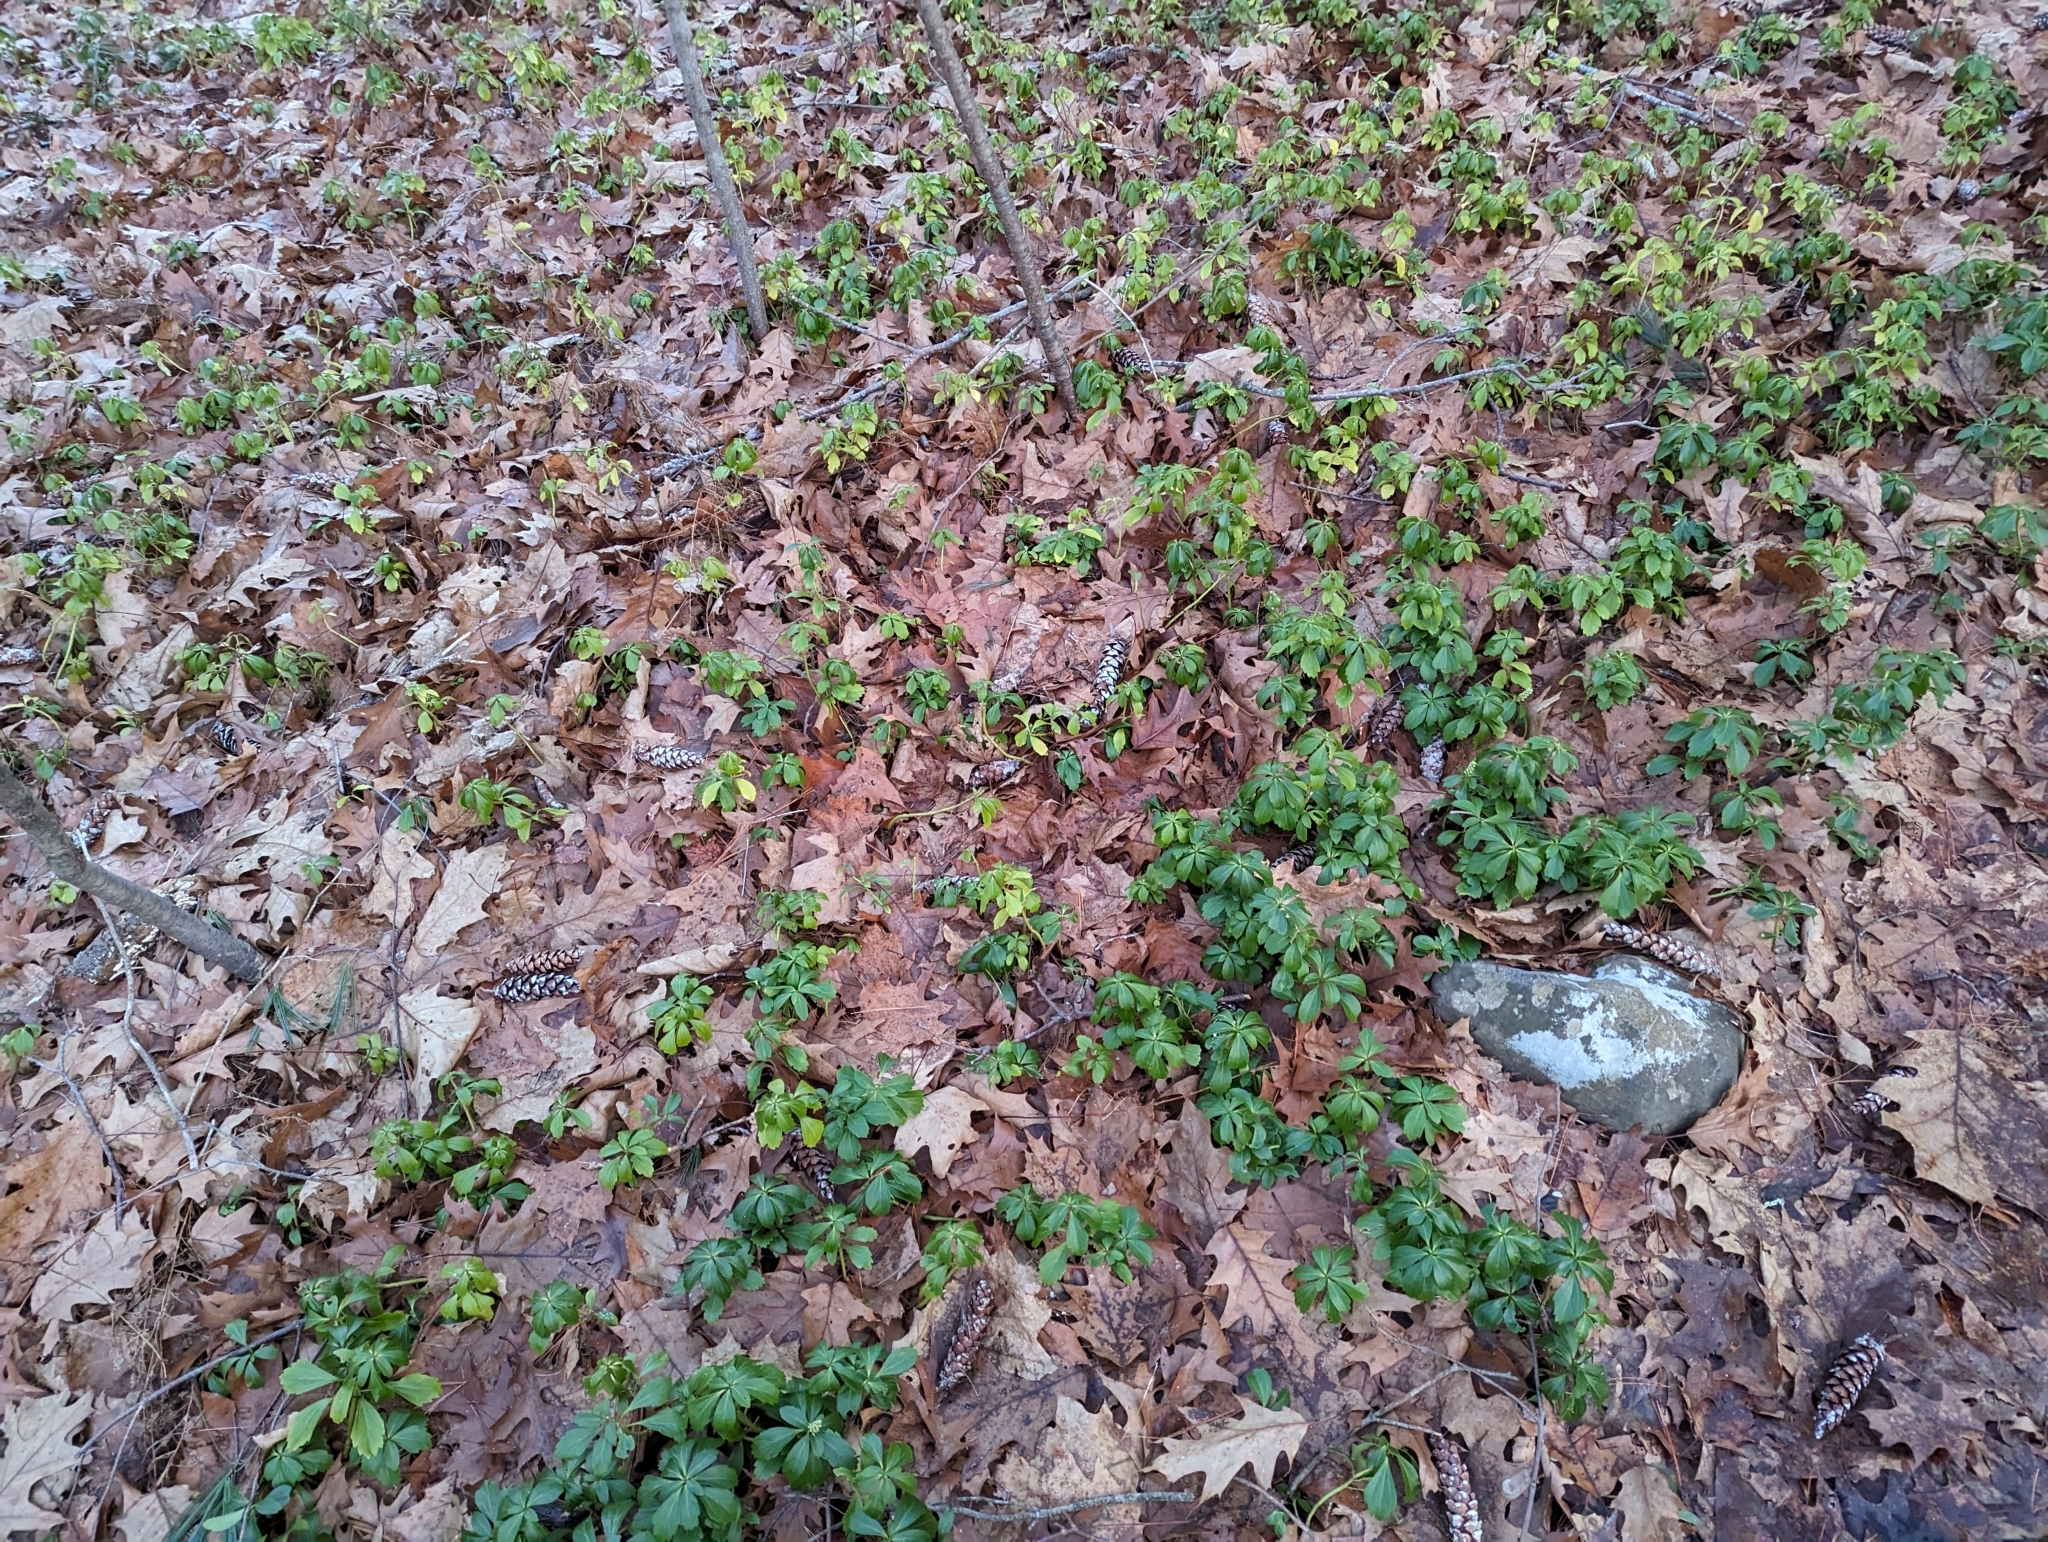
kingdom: Plantae
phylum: Tracheophyta
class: Magnoliopsida
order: Buxales
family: Buxaceae
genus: Pachysandra
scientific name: Pachysandra terminalis
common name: Japanese pachysandra
